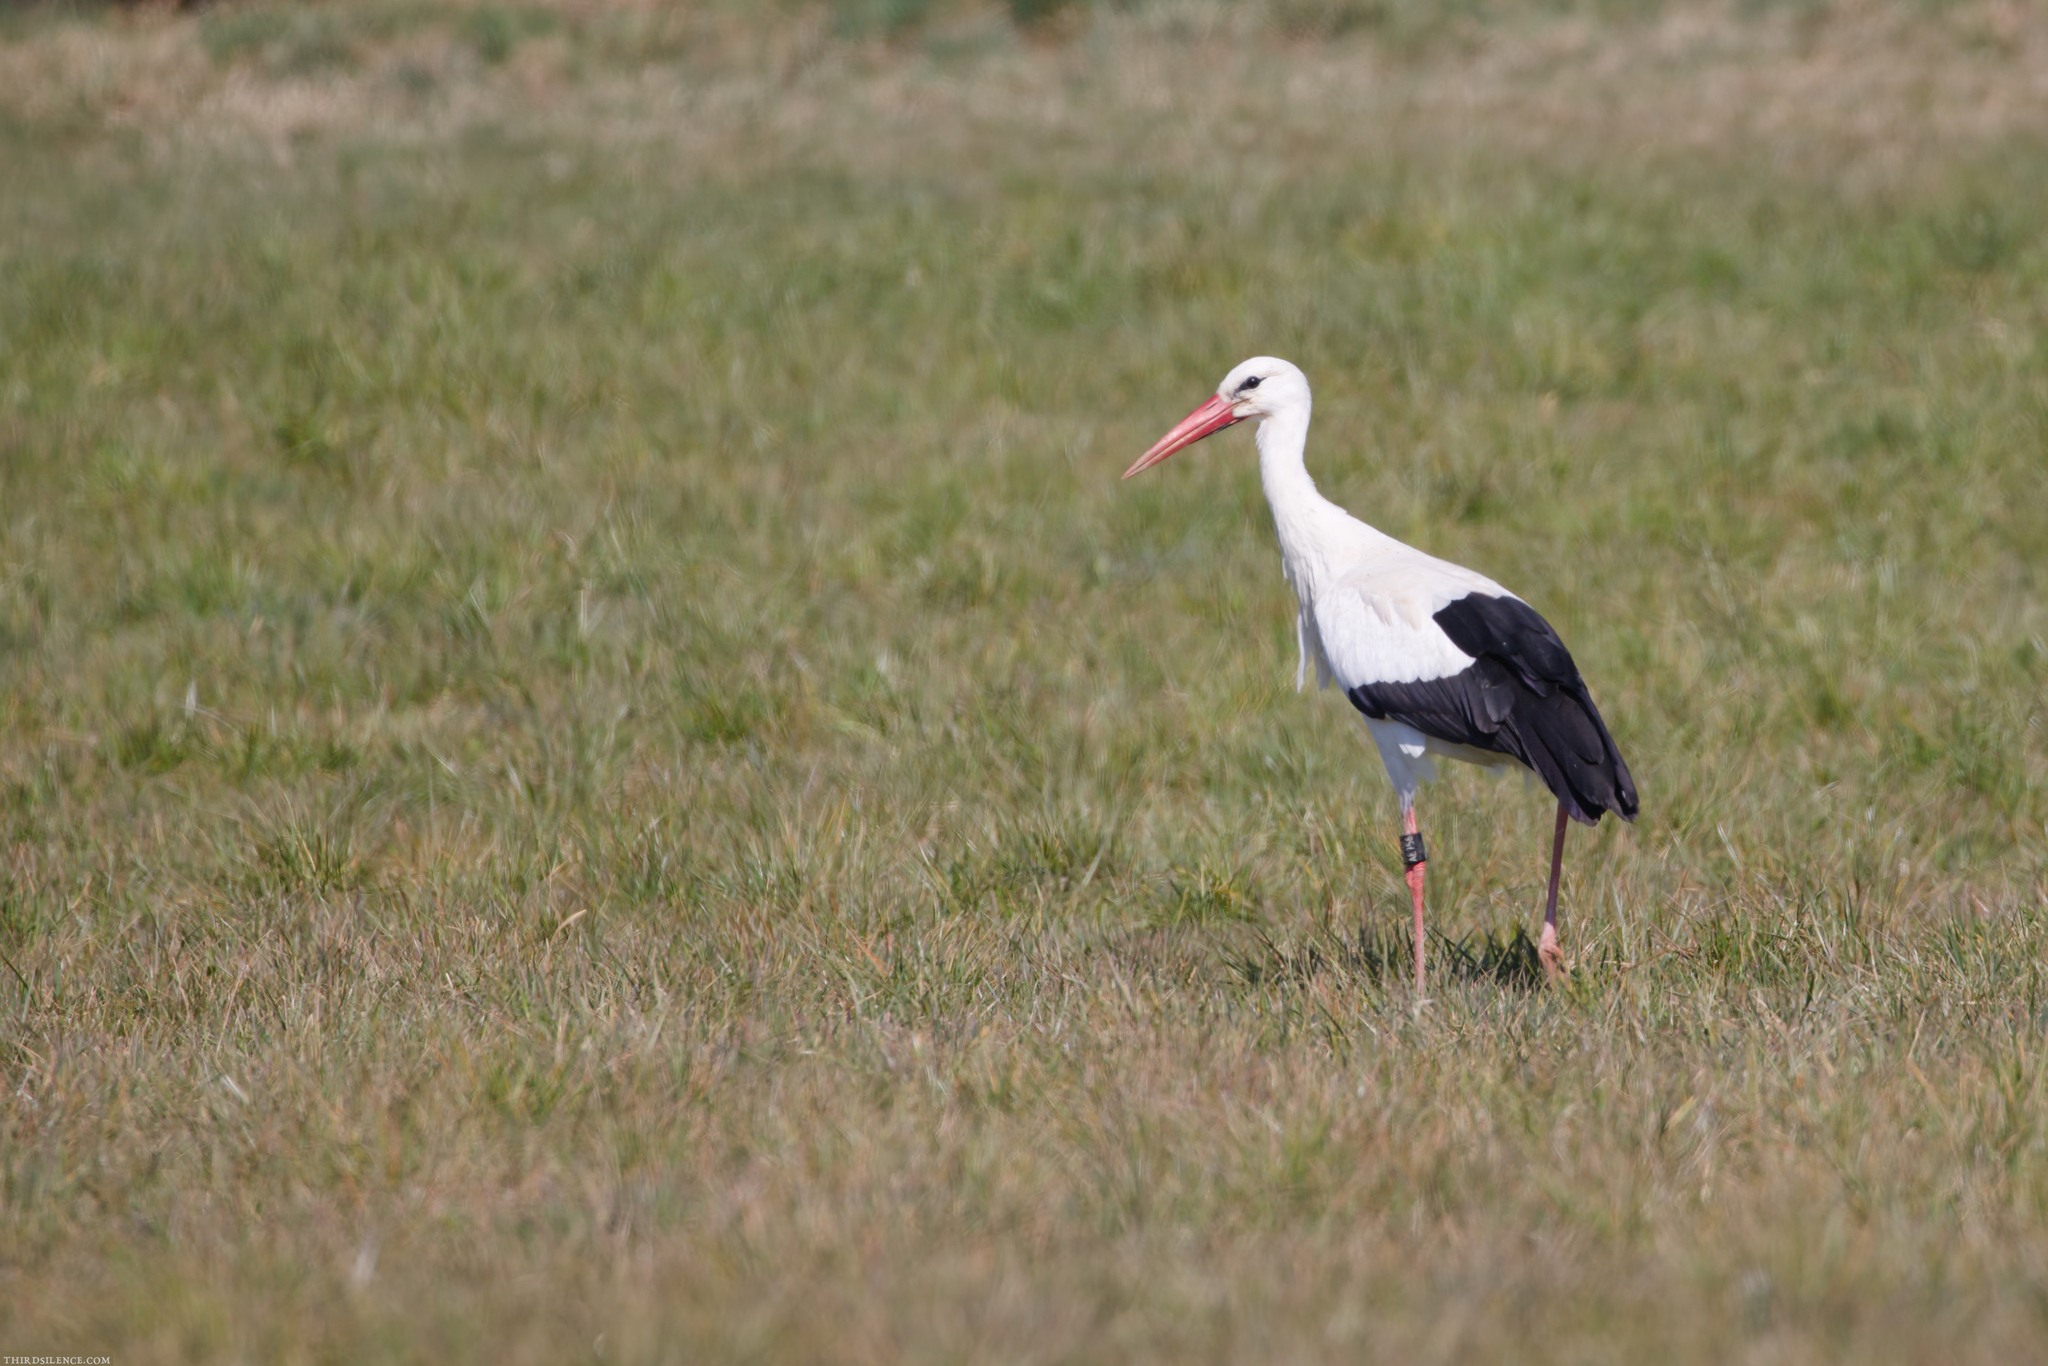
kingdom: Animalia
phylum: Chordata
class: Aves
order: Ciconiiformes
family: Ciconiidae
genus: Ciconia
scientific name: Ciconia ciconia
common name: White stork
